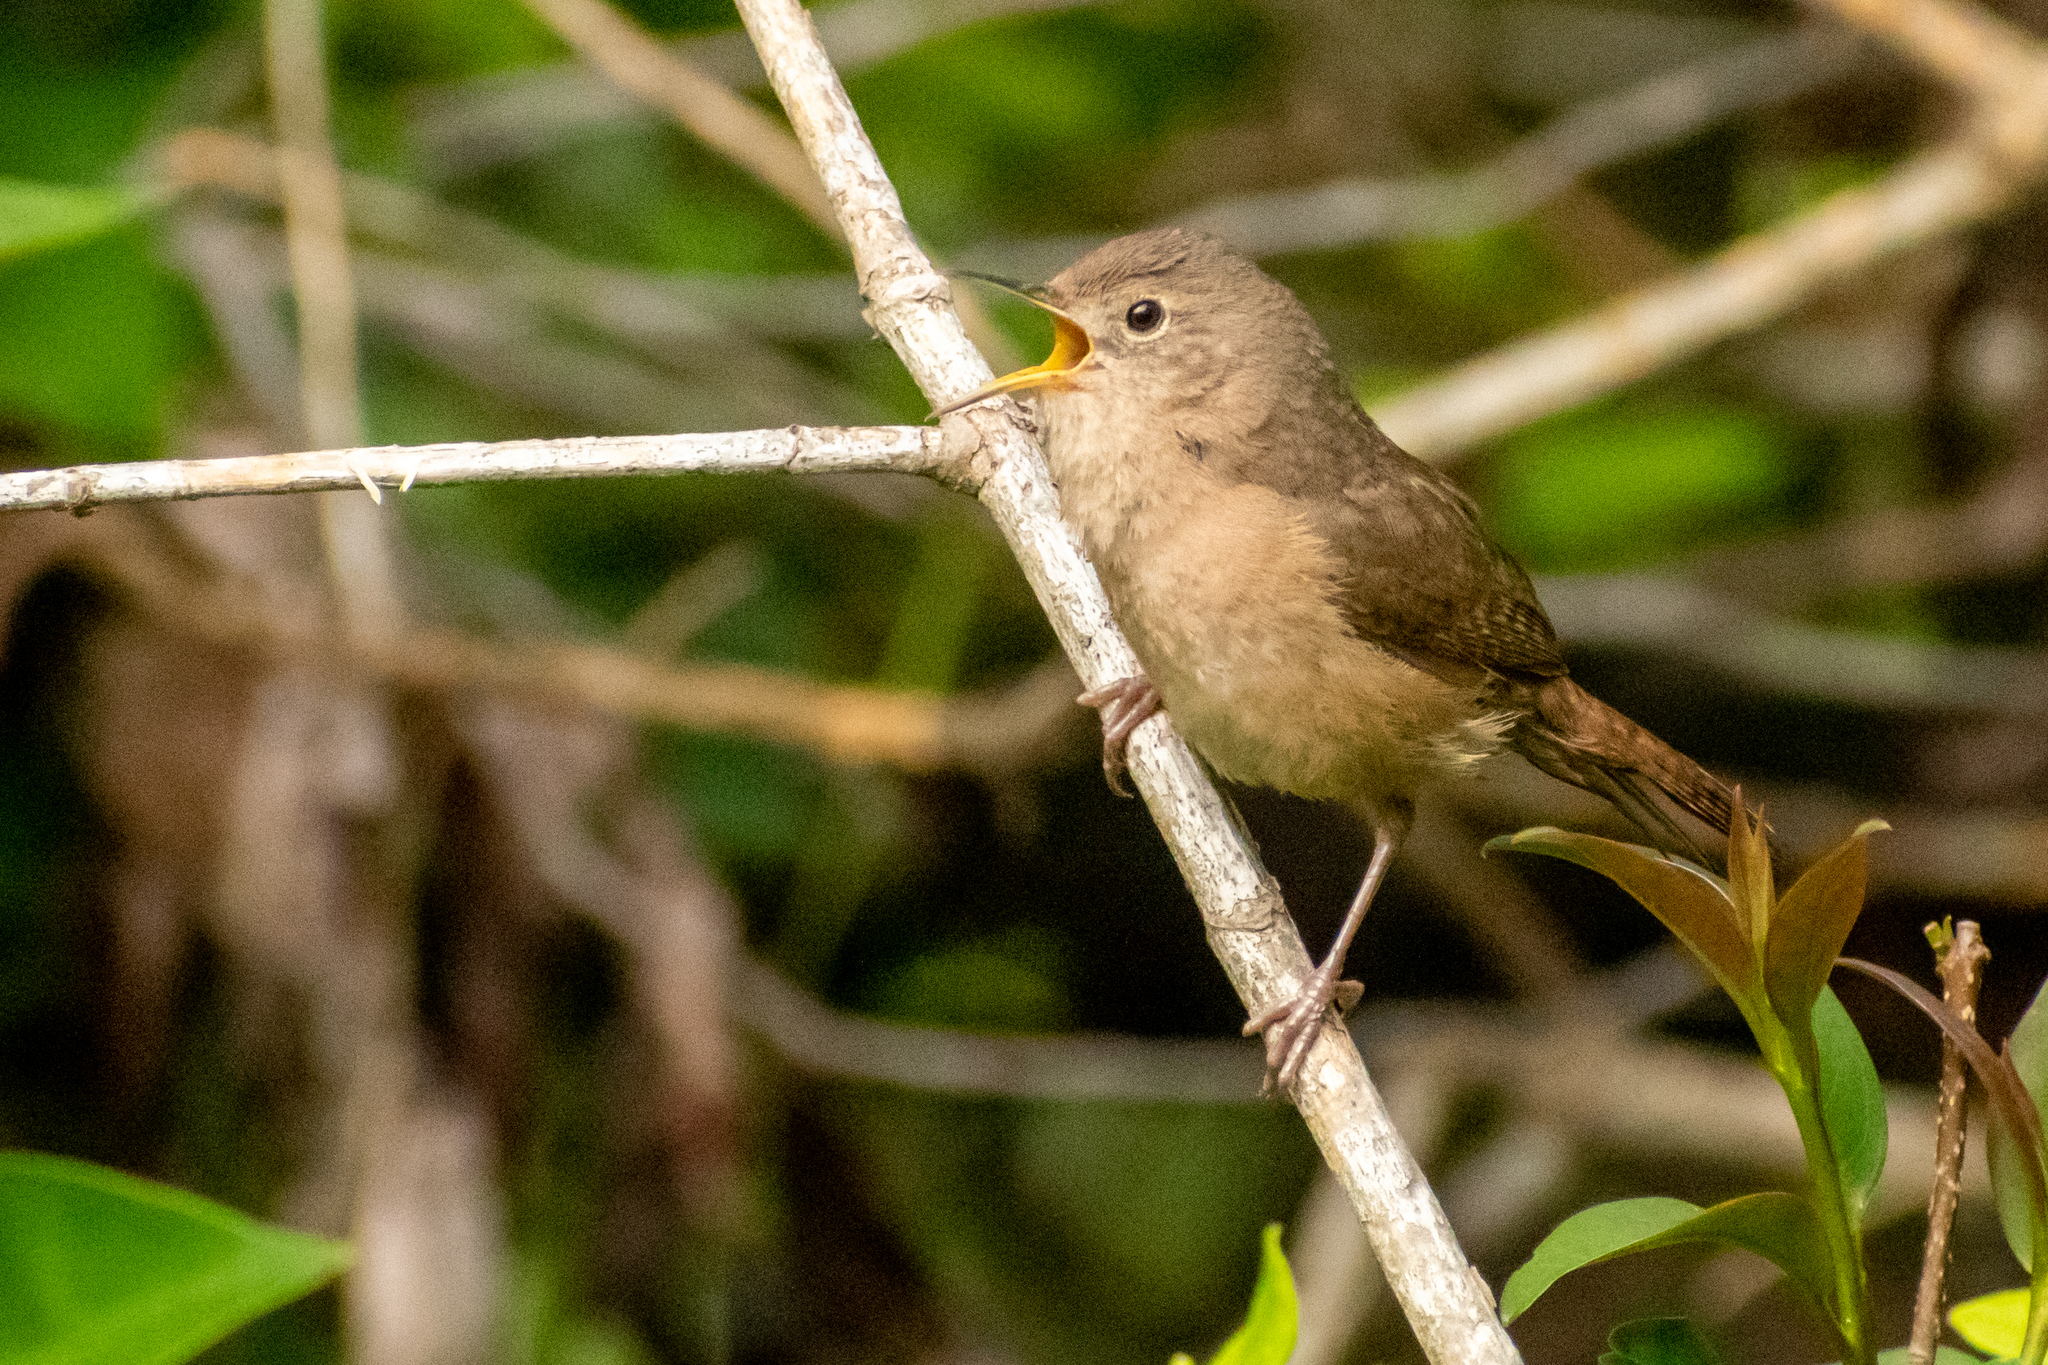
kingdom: Animalia
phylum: Chordata
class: Aves
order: Passeriformes
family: Troglodytidae
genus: Troglodytes
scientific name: Troglodytes aedon
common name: House wren
